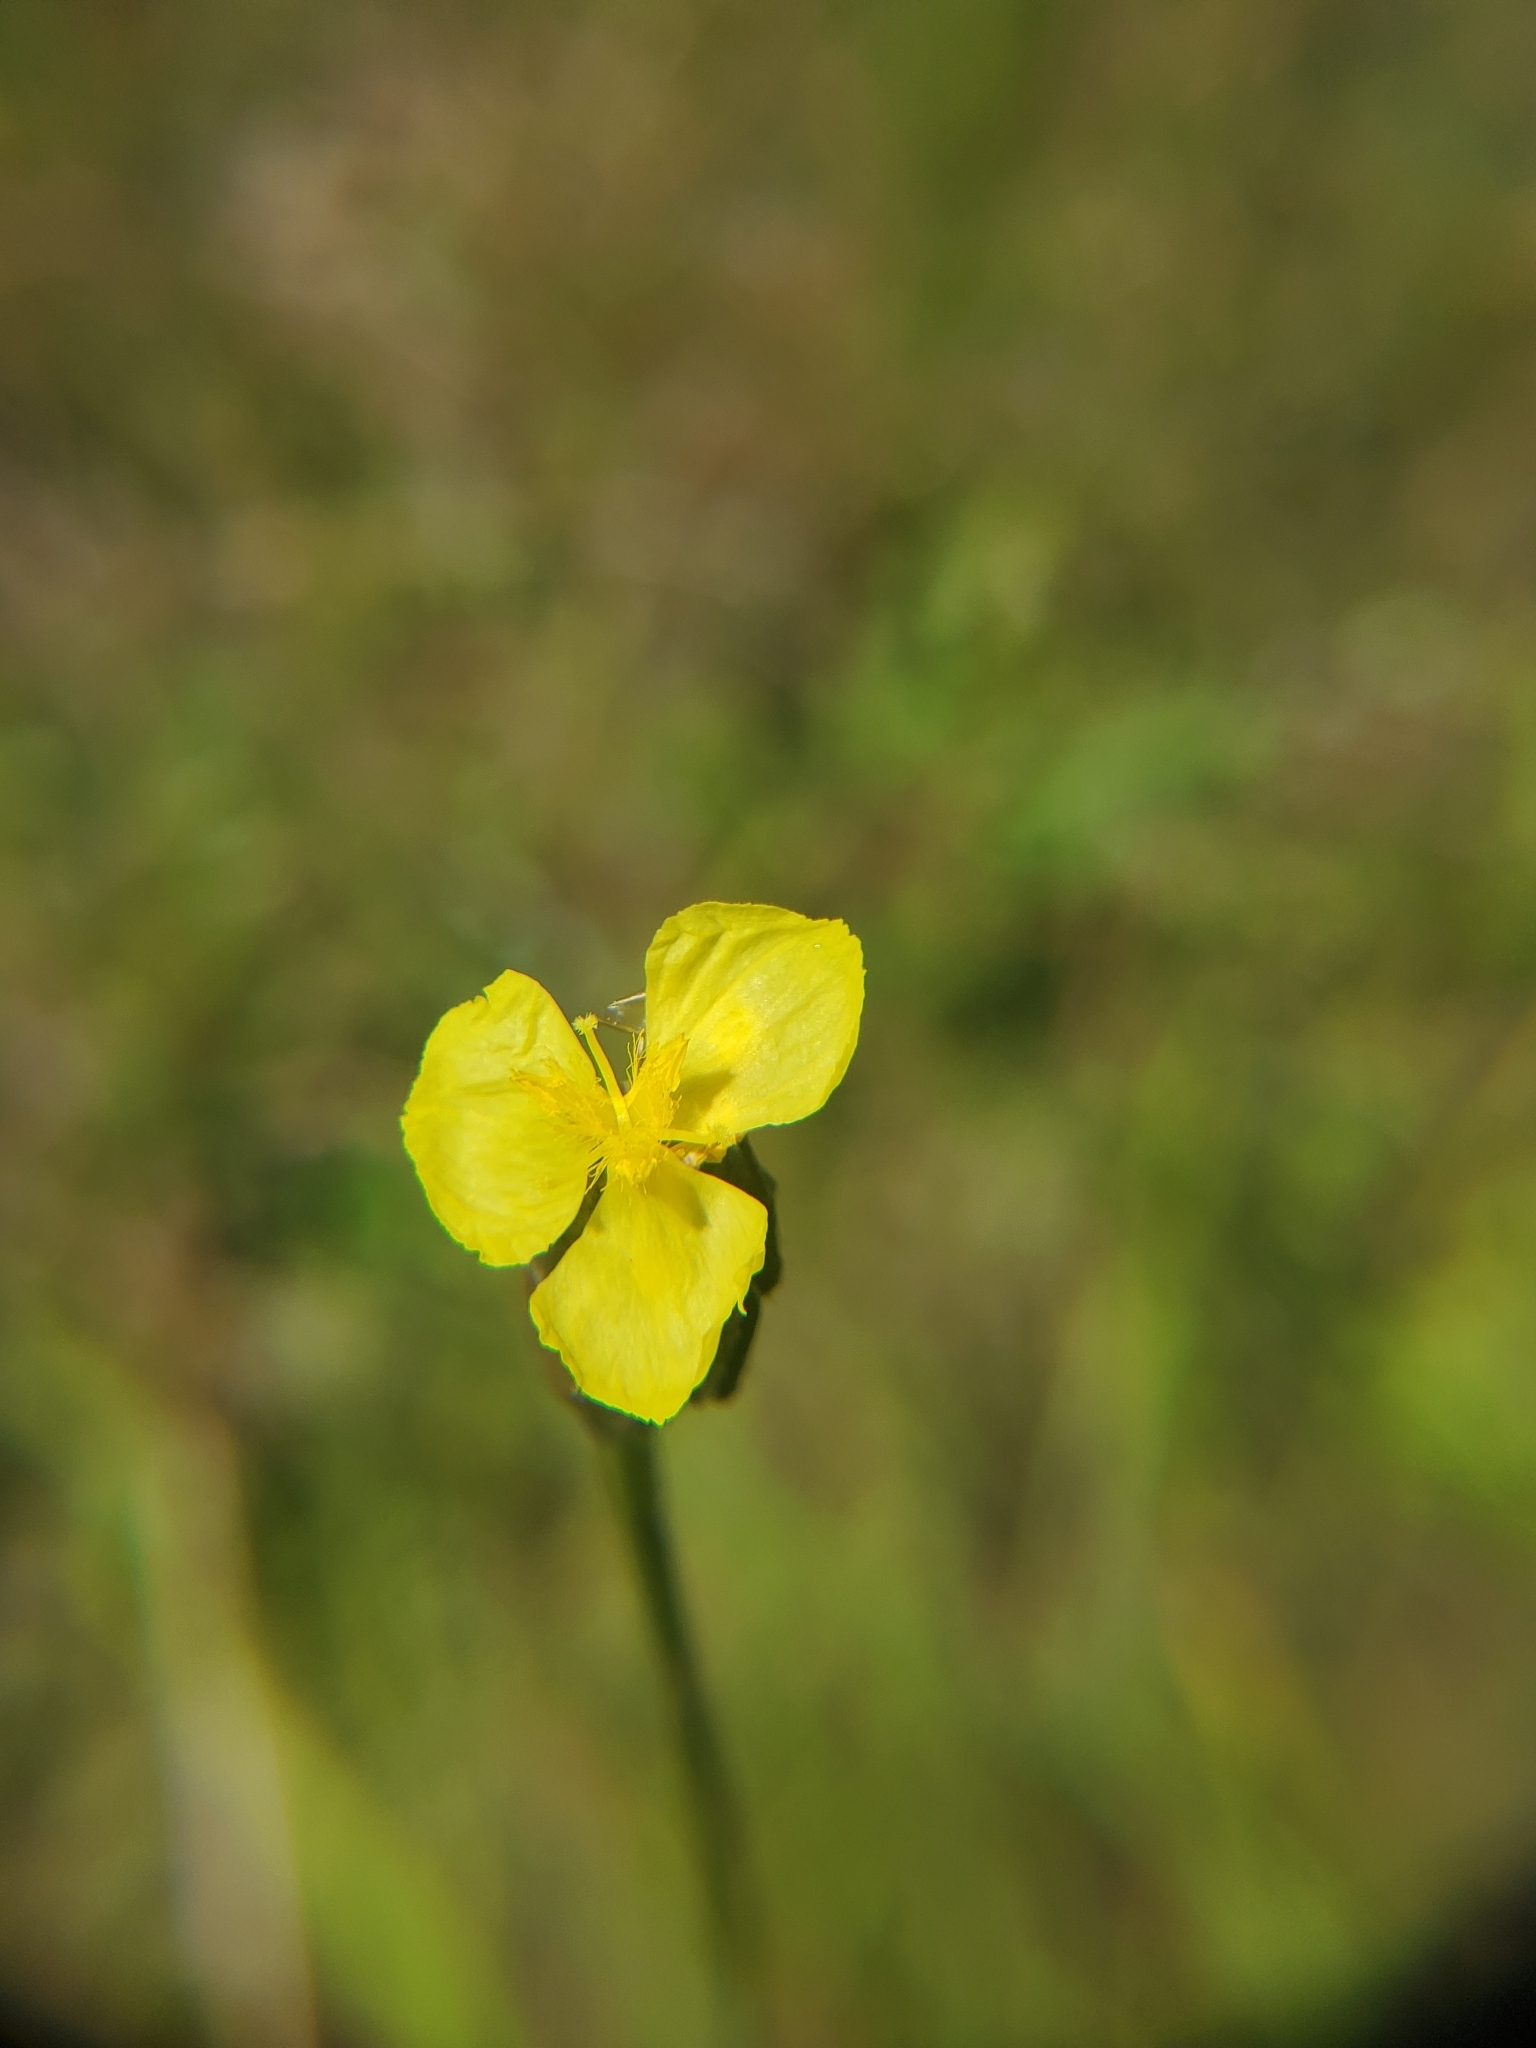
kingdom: Plantae
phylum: Tracheophyta
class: Liliopsida
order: Poales
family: Xyridaceae
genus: Xyris
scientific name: Xyris ambigua
